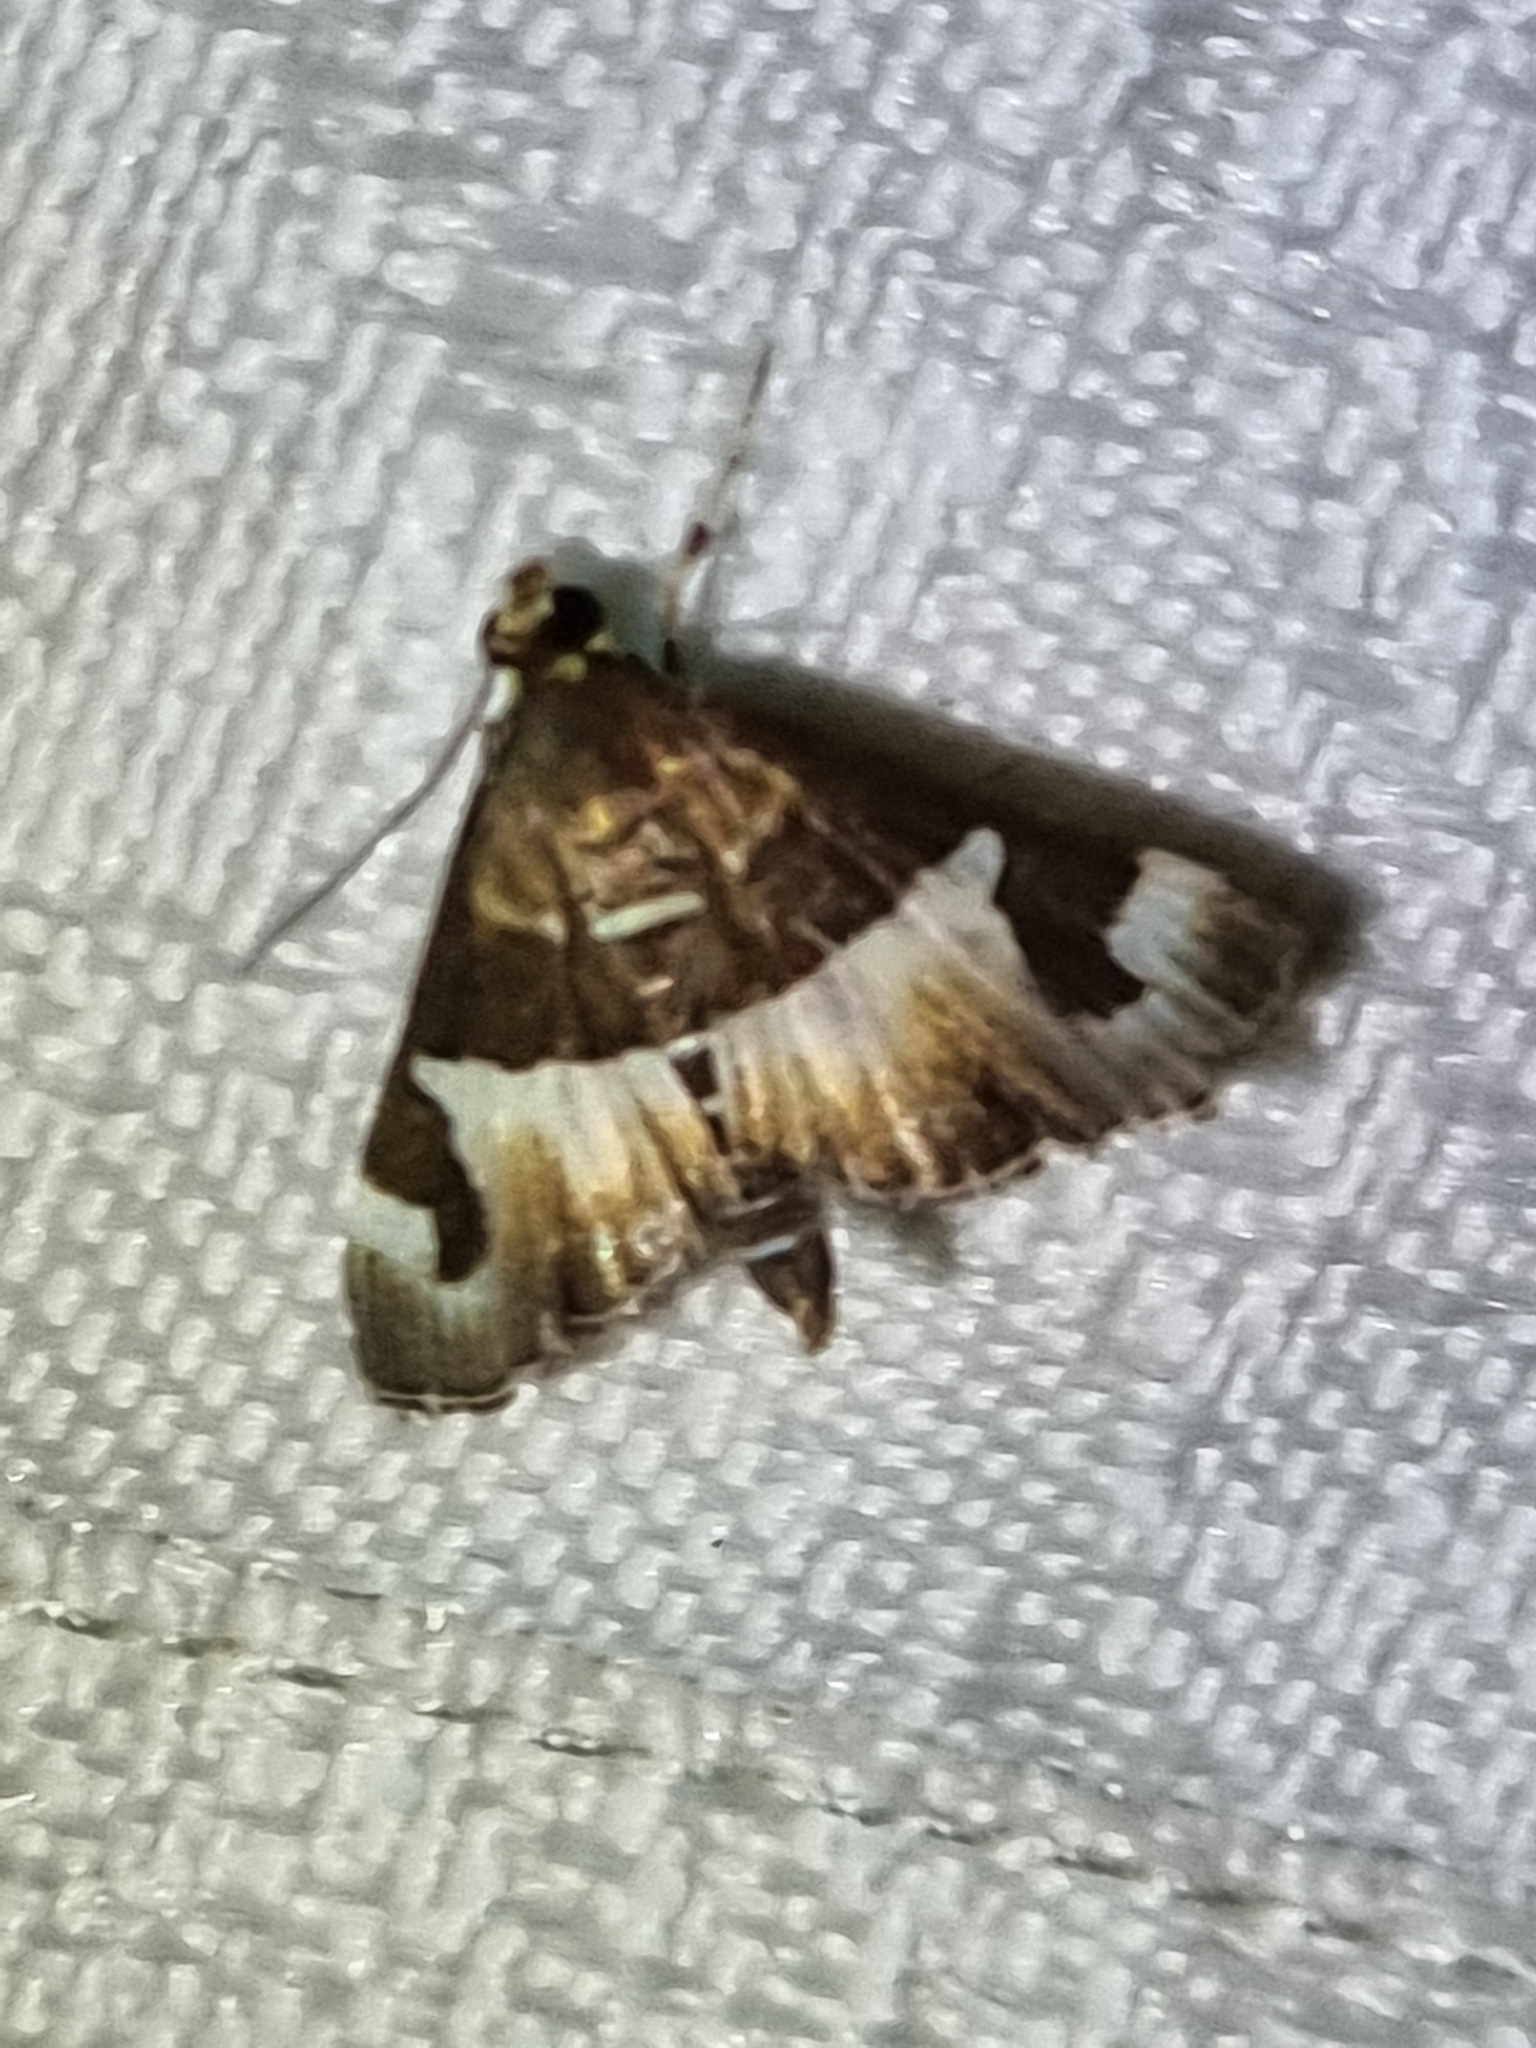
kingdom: Animalia
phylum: Arthropoda
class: Insecta
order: Lepidoptera
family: Crambidae
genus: Spoladea
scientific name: Spoladea recurvalis
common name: Beet webworm moth
